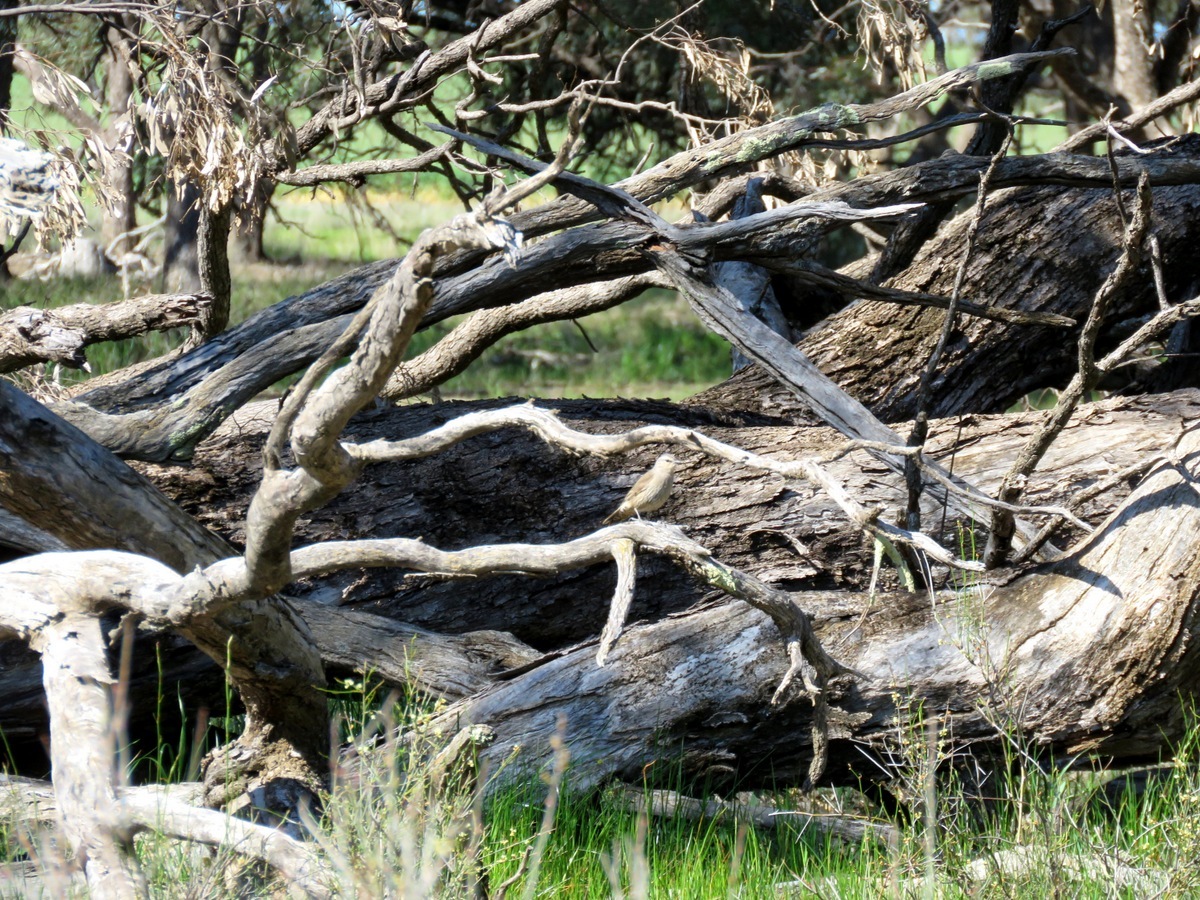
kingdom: Animalia
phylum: Chordata
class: Aves
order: Passeriformes
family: Climacteridae
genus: Climacteris
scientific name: Climacteris picumnus
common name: Brown treecreeper
